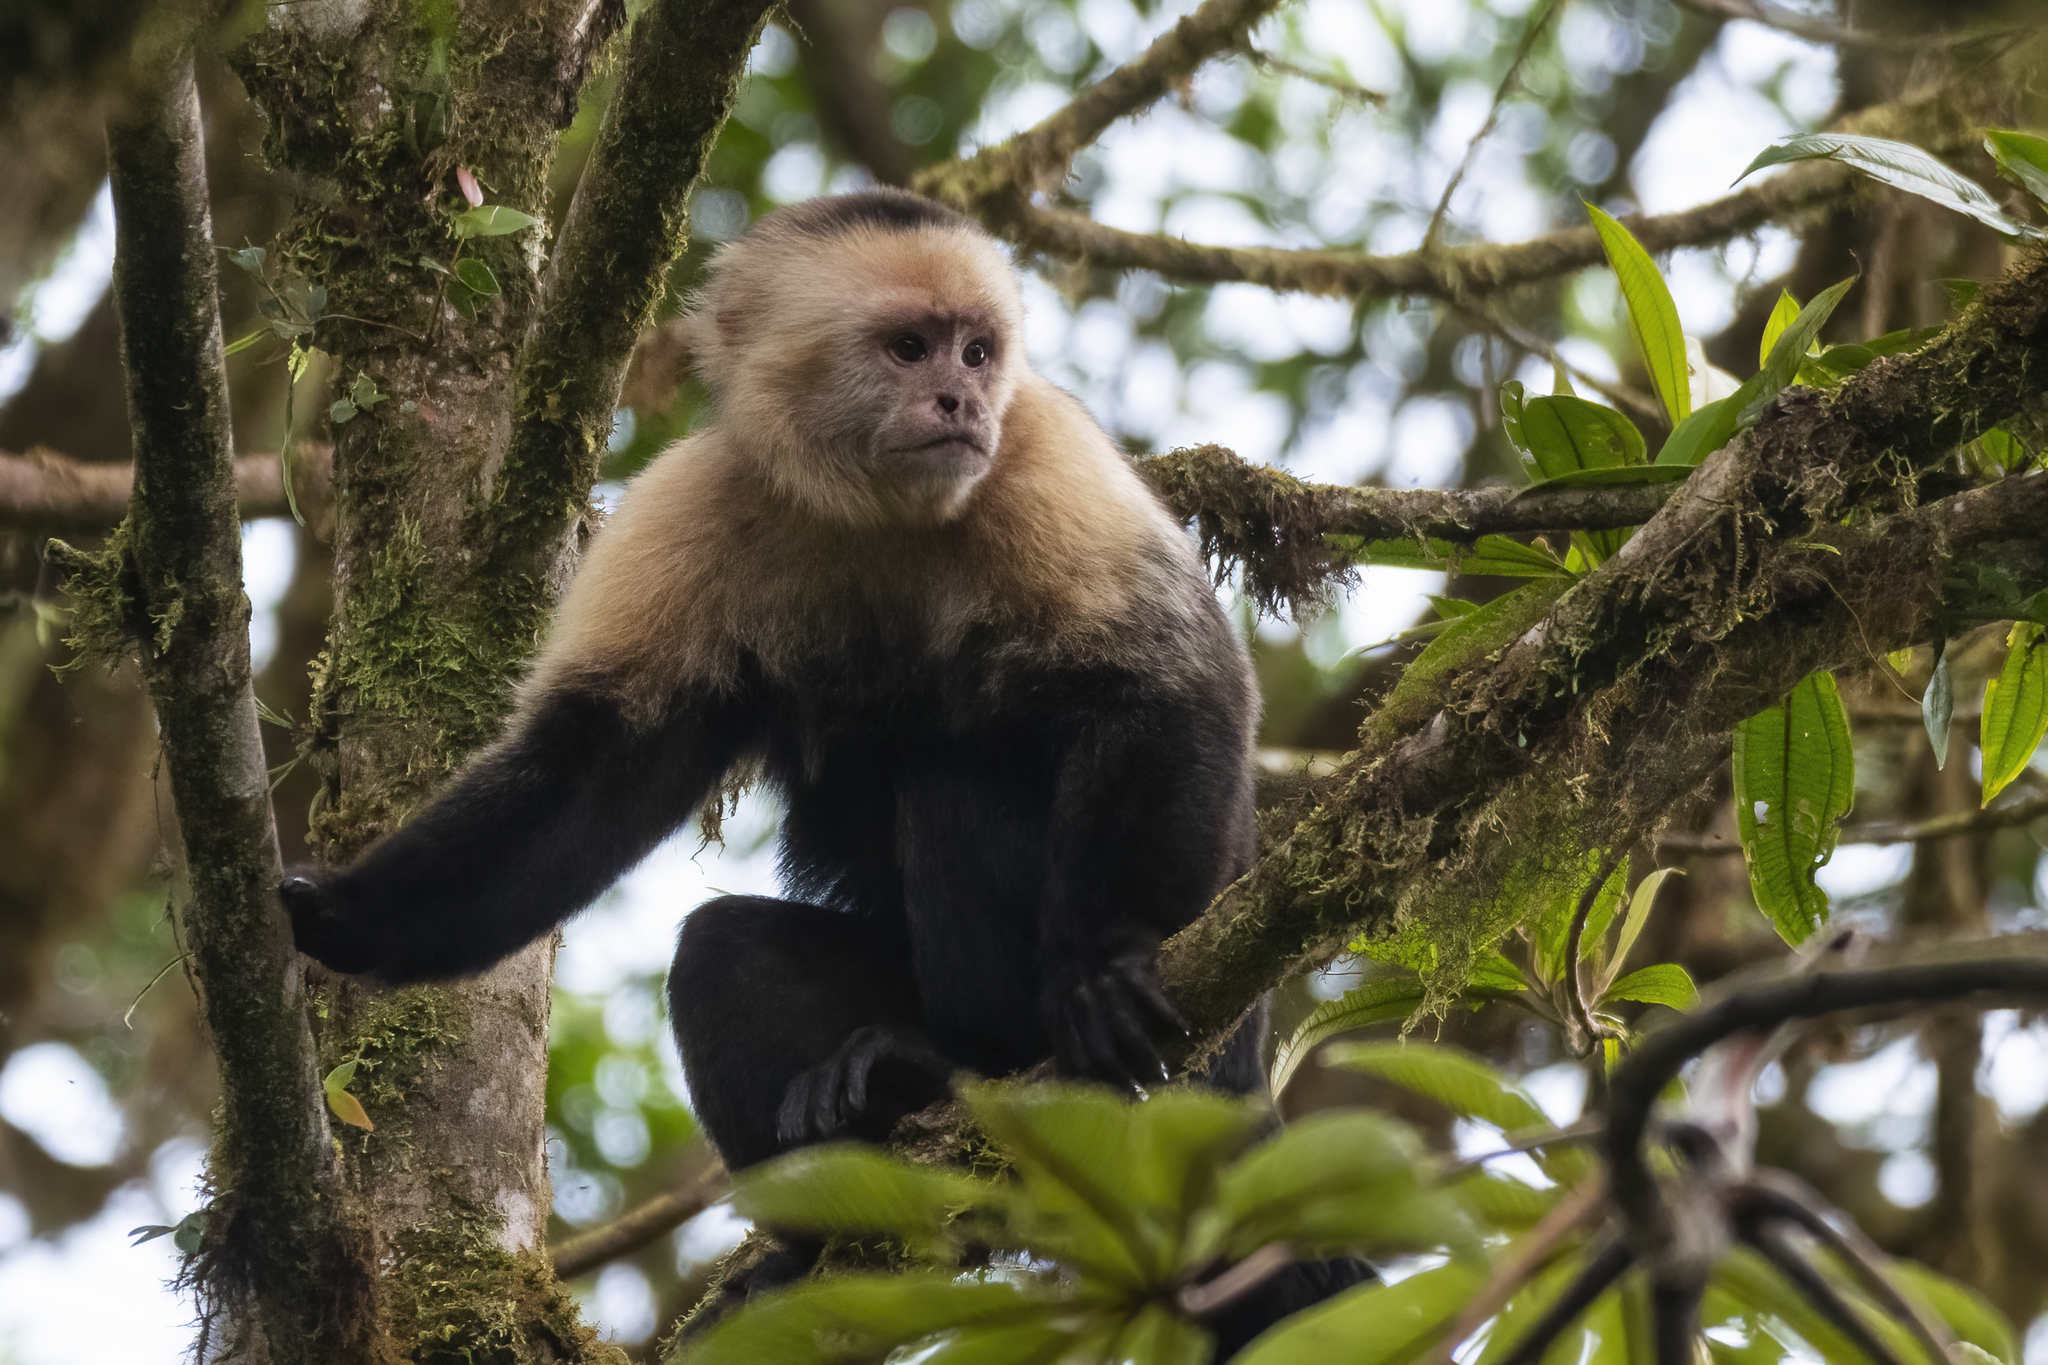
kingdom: Animalia
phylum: Chordata
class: Mammalia
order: Primates
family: Cebidae
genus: Cebus
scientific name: Cebus imitator
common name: Panamanian white-faced capuchin
